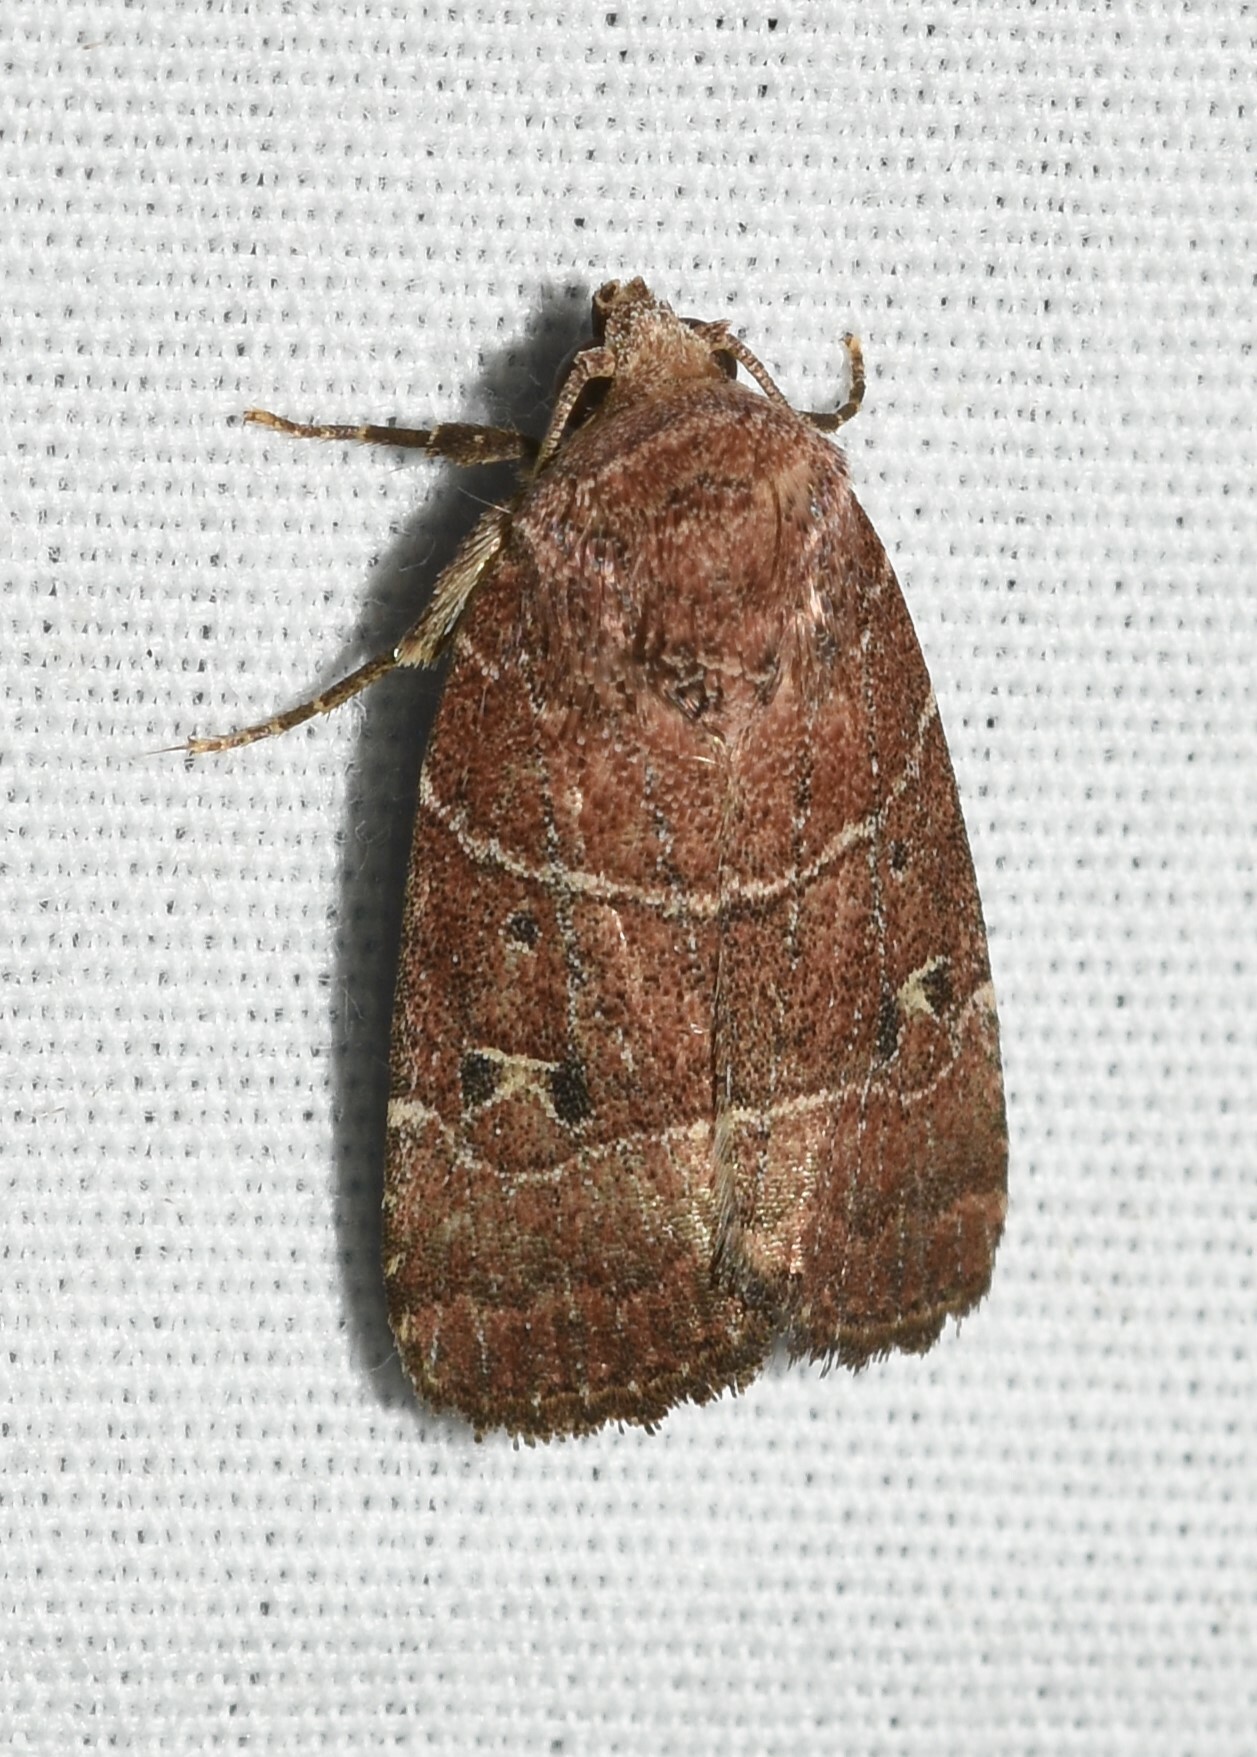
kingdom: Animalia
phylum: Arthropoda
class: Insecta
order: Lepidoptera
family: Noctuidae
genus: Elaphria
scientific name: Elaphria grata
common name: Grateful midget moth
